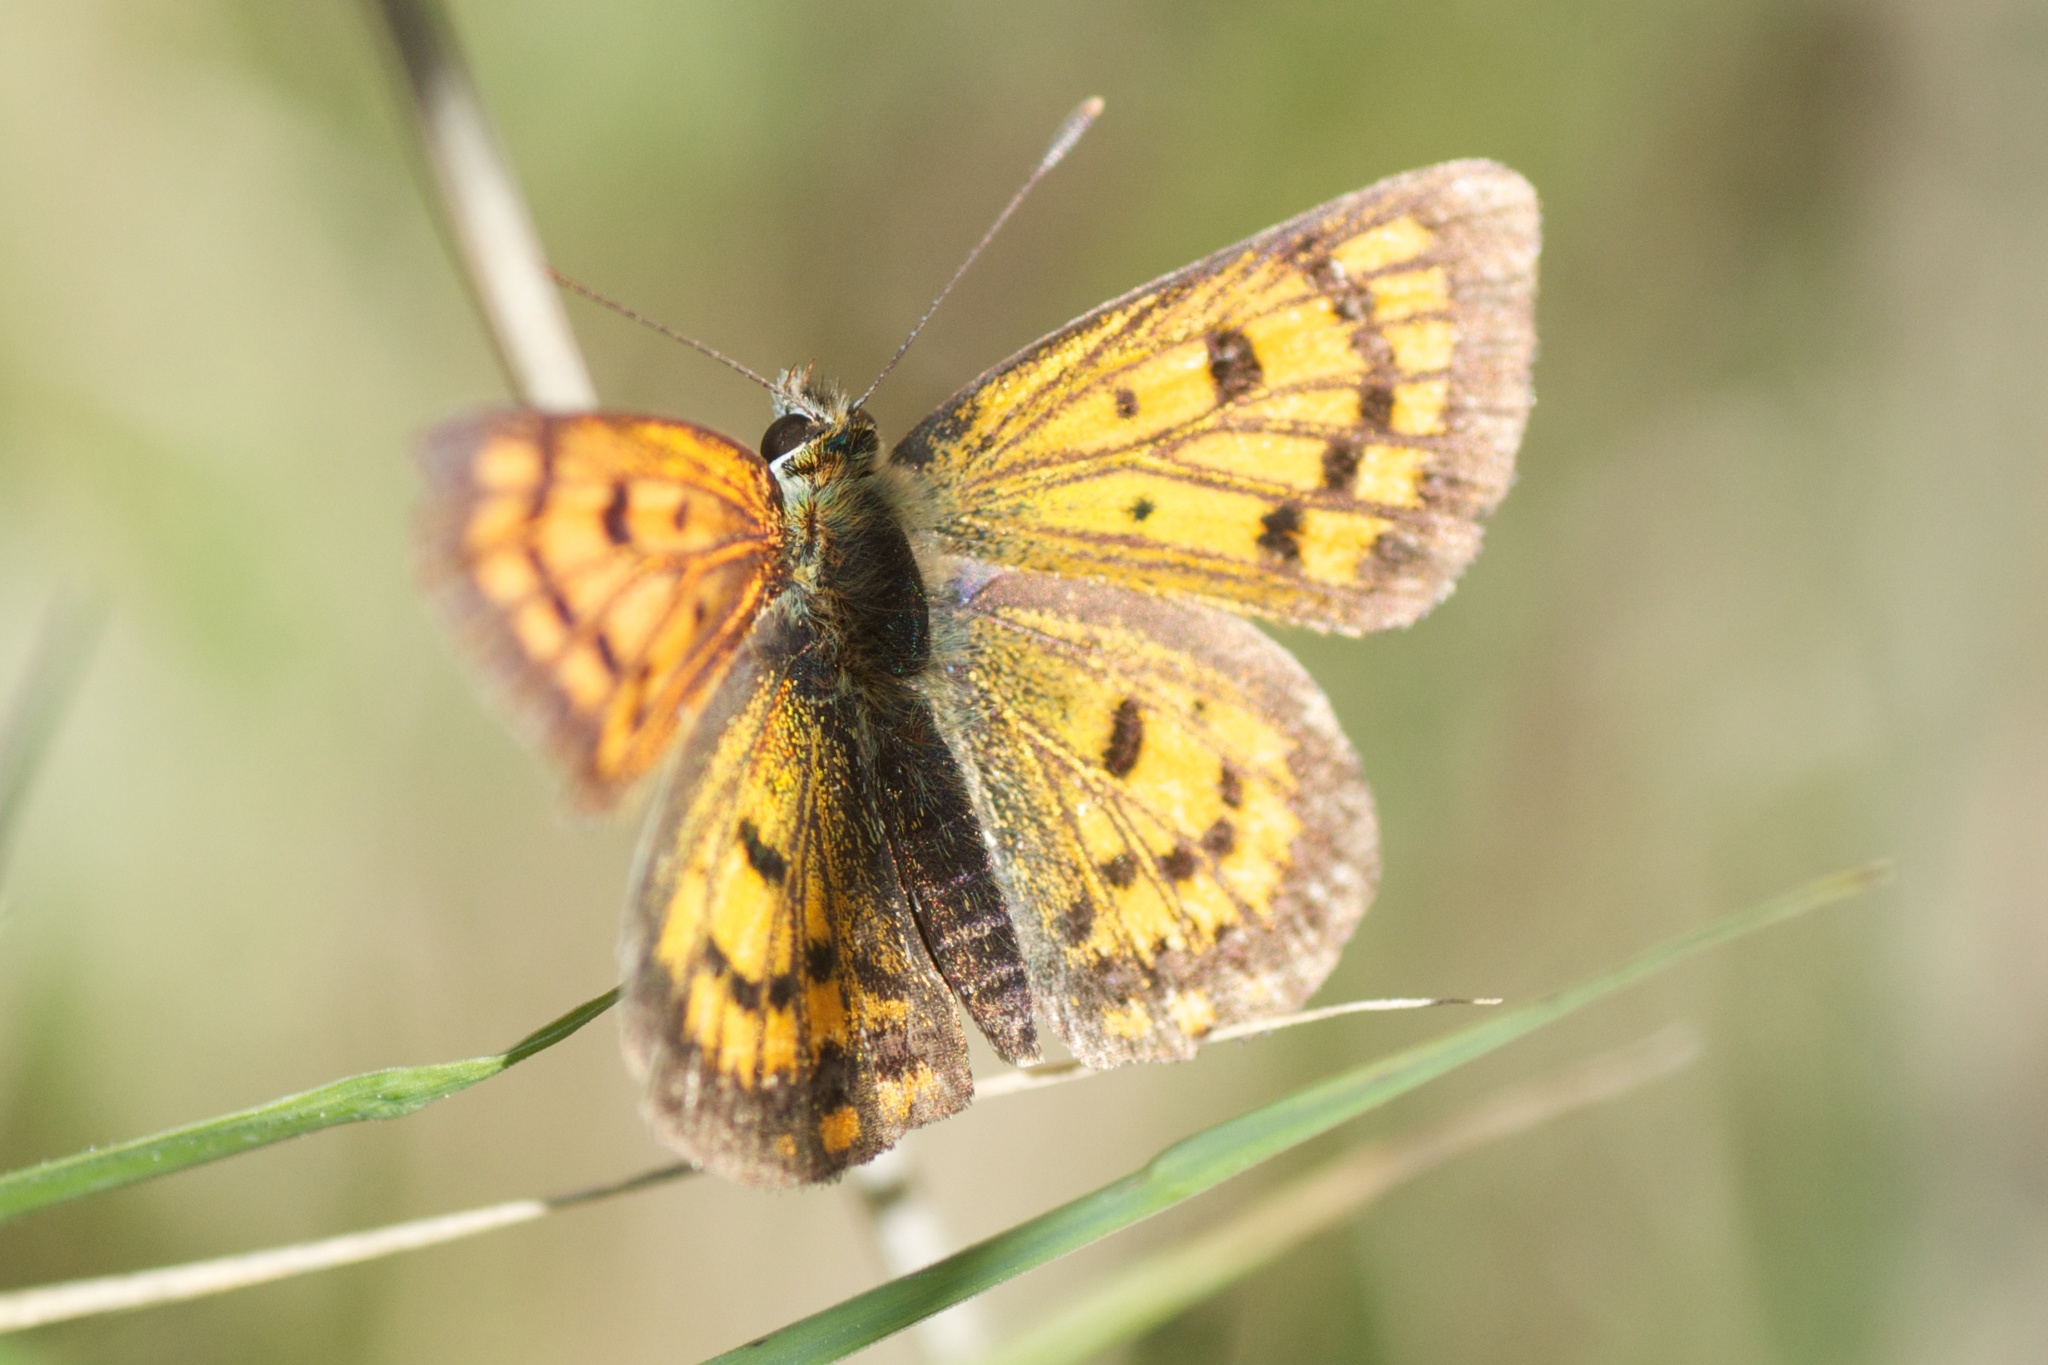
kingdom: Animalia
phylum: Arthropoda
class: Insecta
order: Lepidoptera
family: Lycaenidae
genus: Lycaena
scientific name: Lycaena salustius
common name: North island coastal copper
